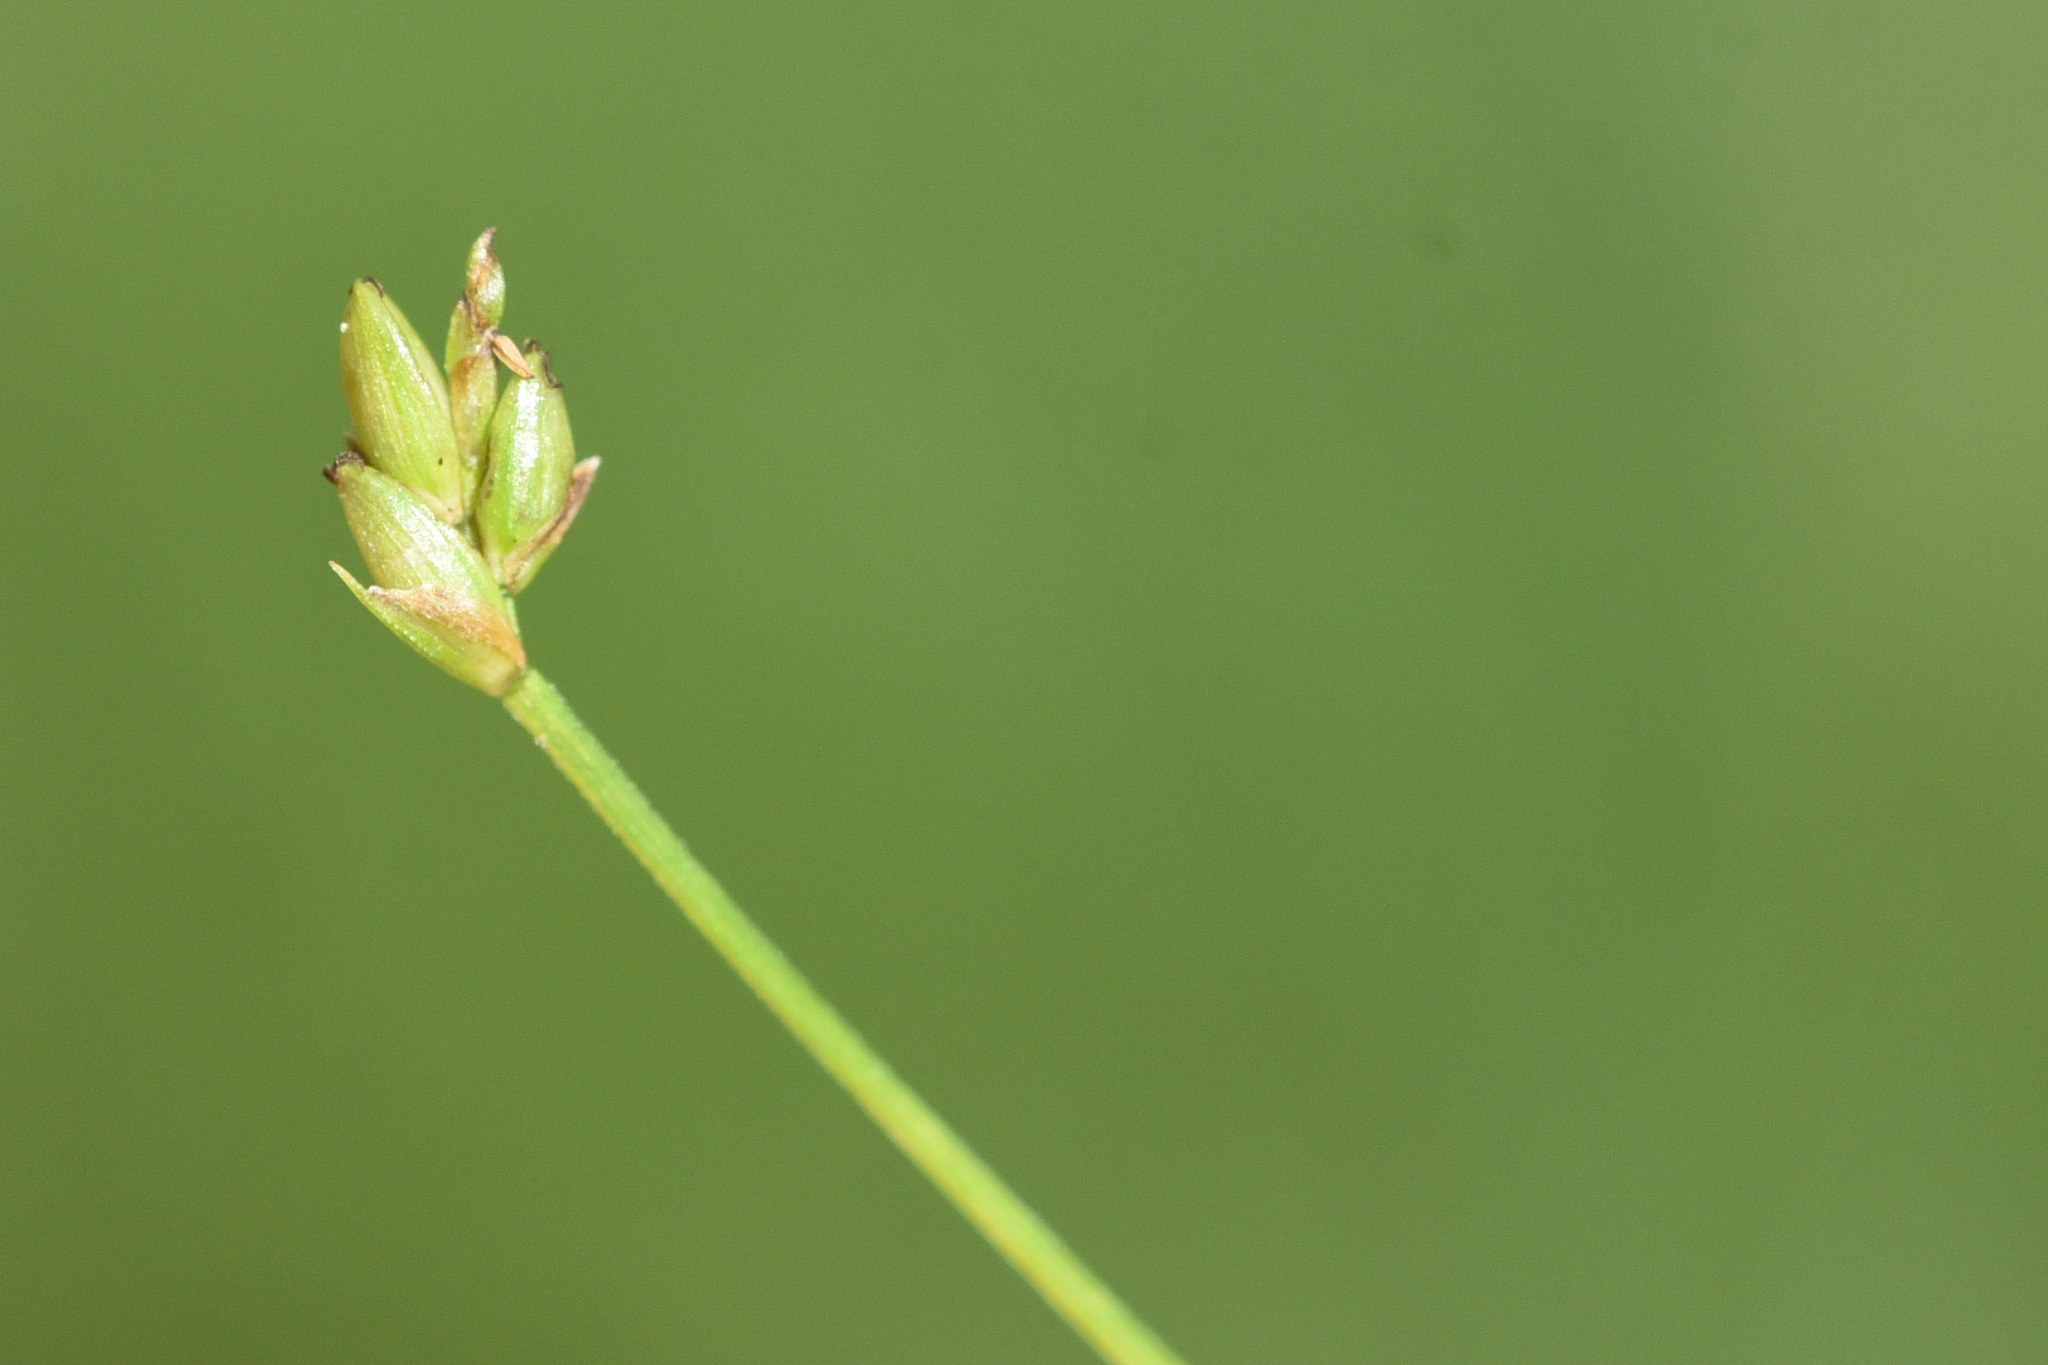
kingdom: Plantae
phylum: Tracheophyta
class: Liliopsida
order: Poales
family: Cyperaceae
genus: Carex
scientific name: Carex leptalea
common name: Bristly-stalked sedge
